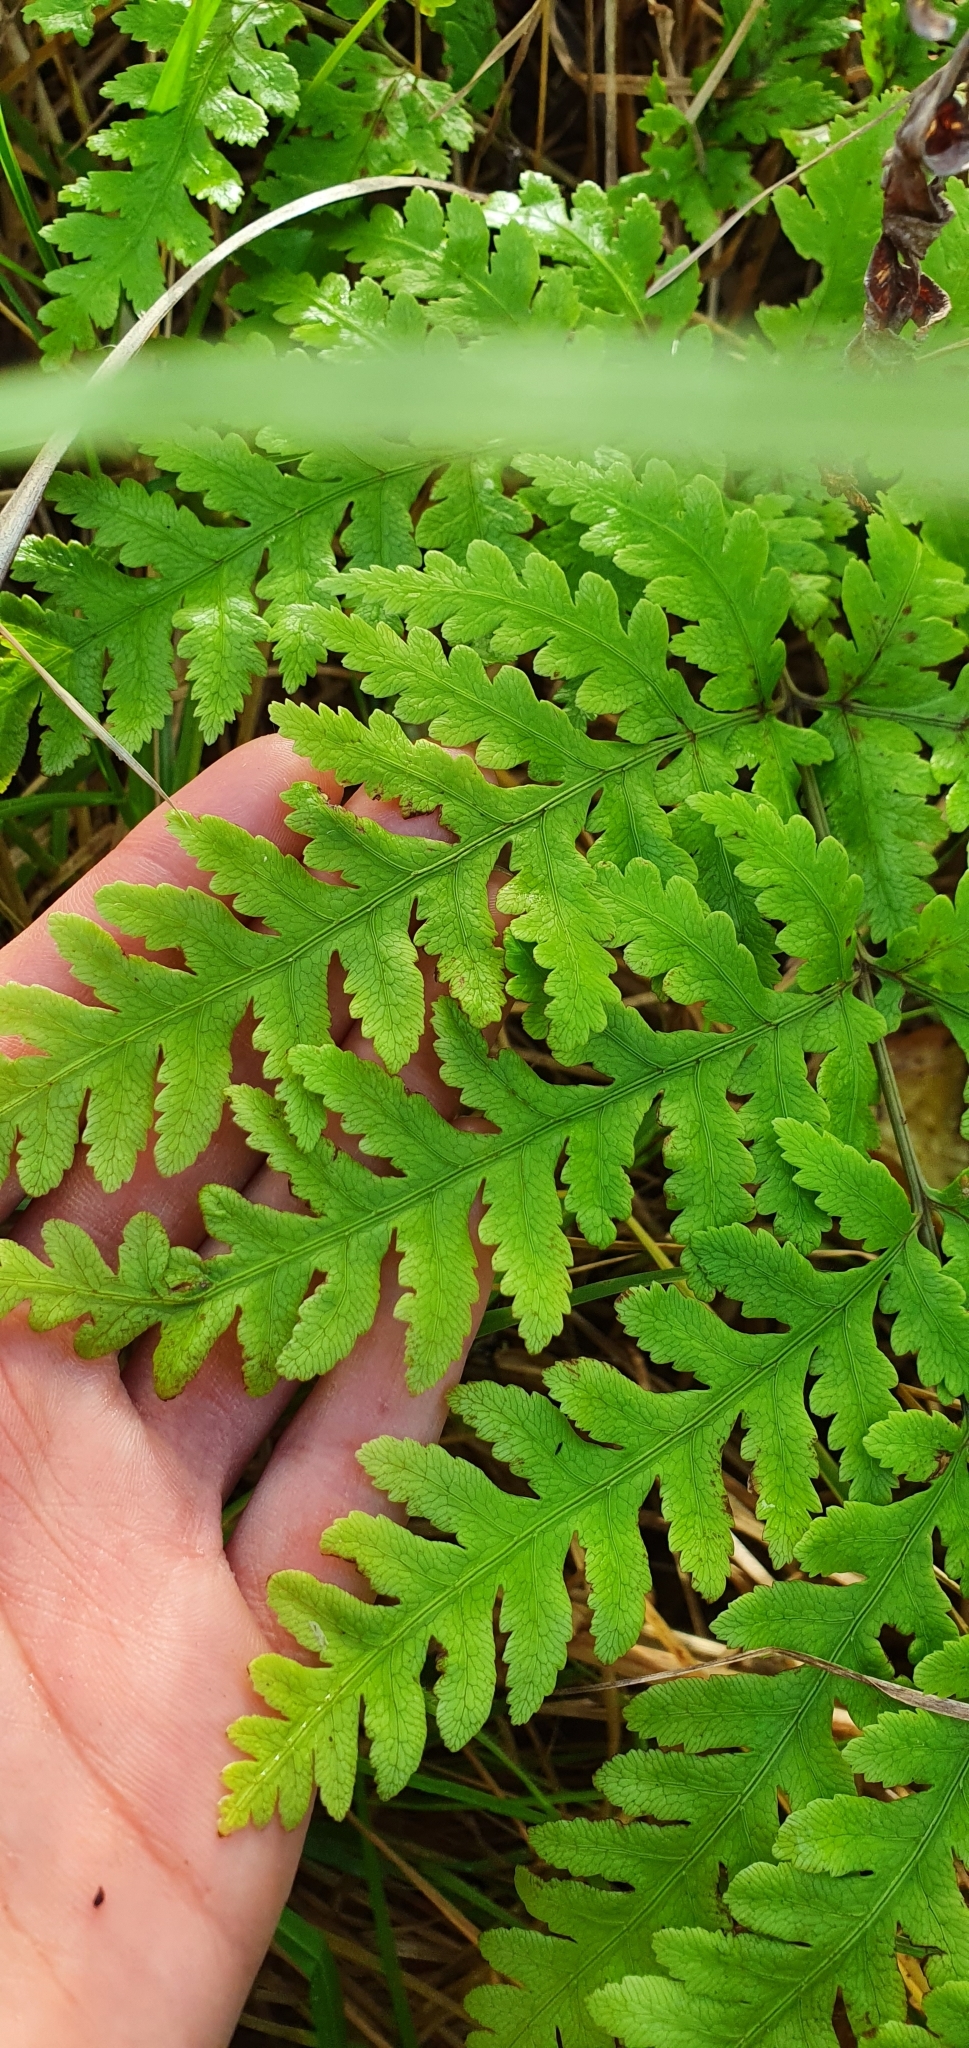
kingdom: Plantae
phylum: Tracheophyta
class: Polypodiopsida
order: Polypodiales
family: Pteridaceae
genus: Pteris
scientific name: Pteris carsei
